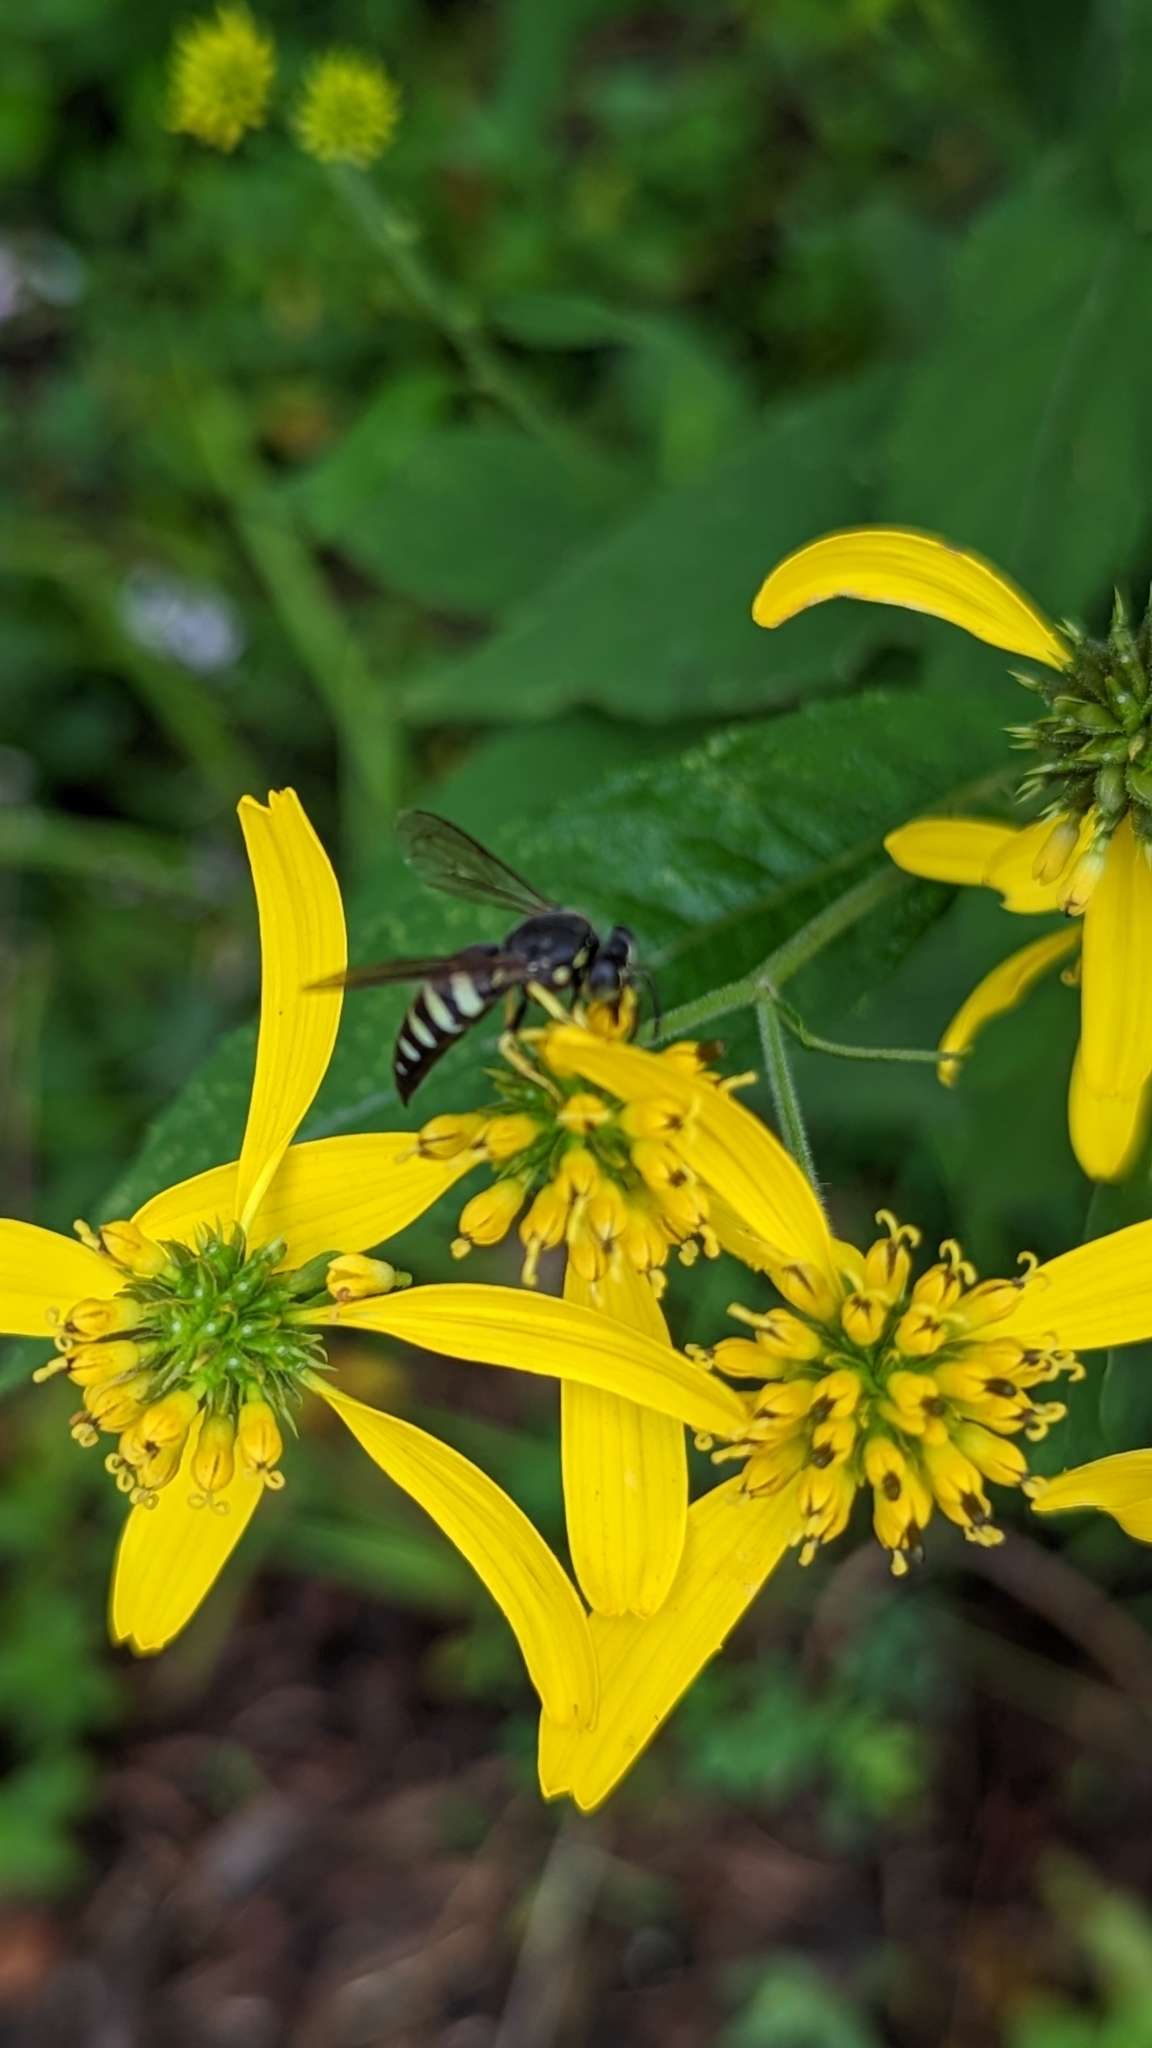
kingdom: Animalia
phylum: Arthropoda
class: Insecta
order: Hymenoptera
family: Crabronidae
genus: Bicyrtes
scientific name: Bicyrtes quadrifasciatus
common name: Four-banded stink bug hunter wasp
